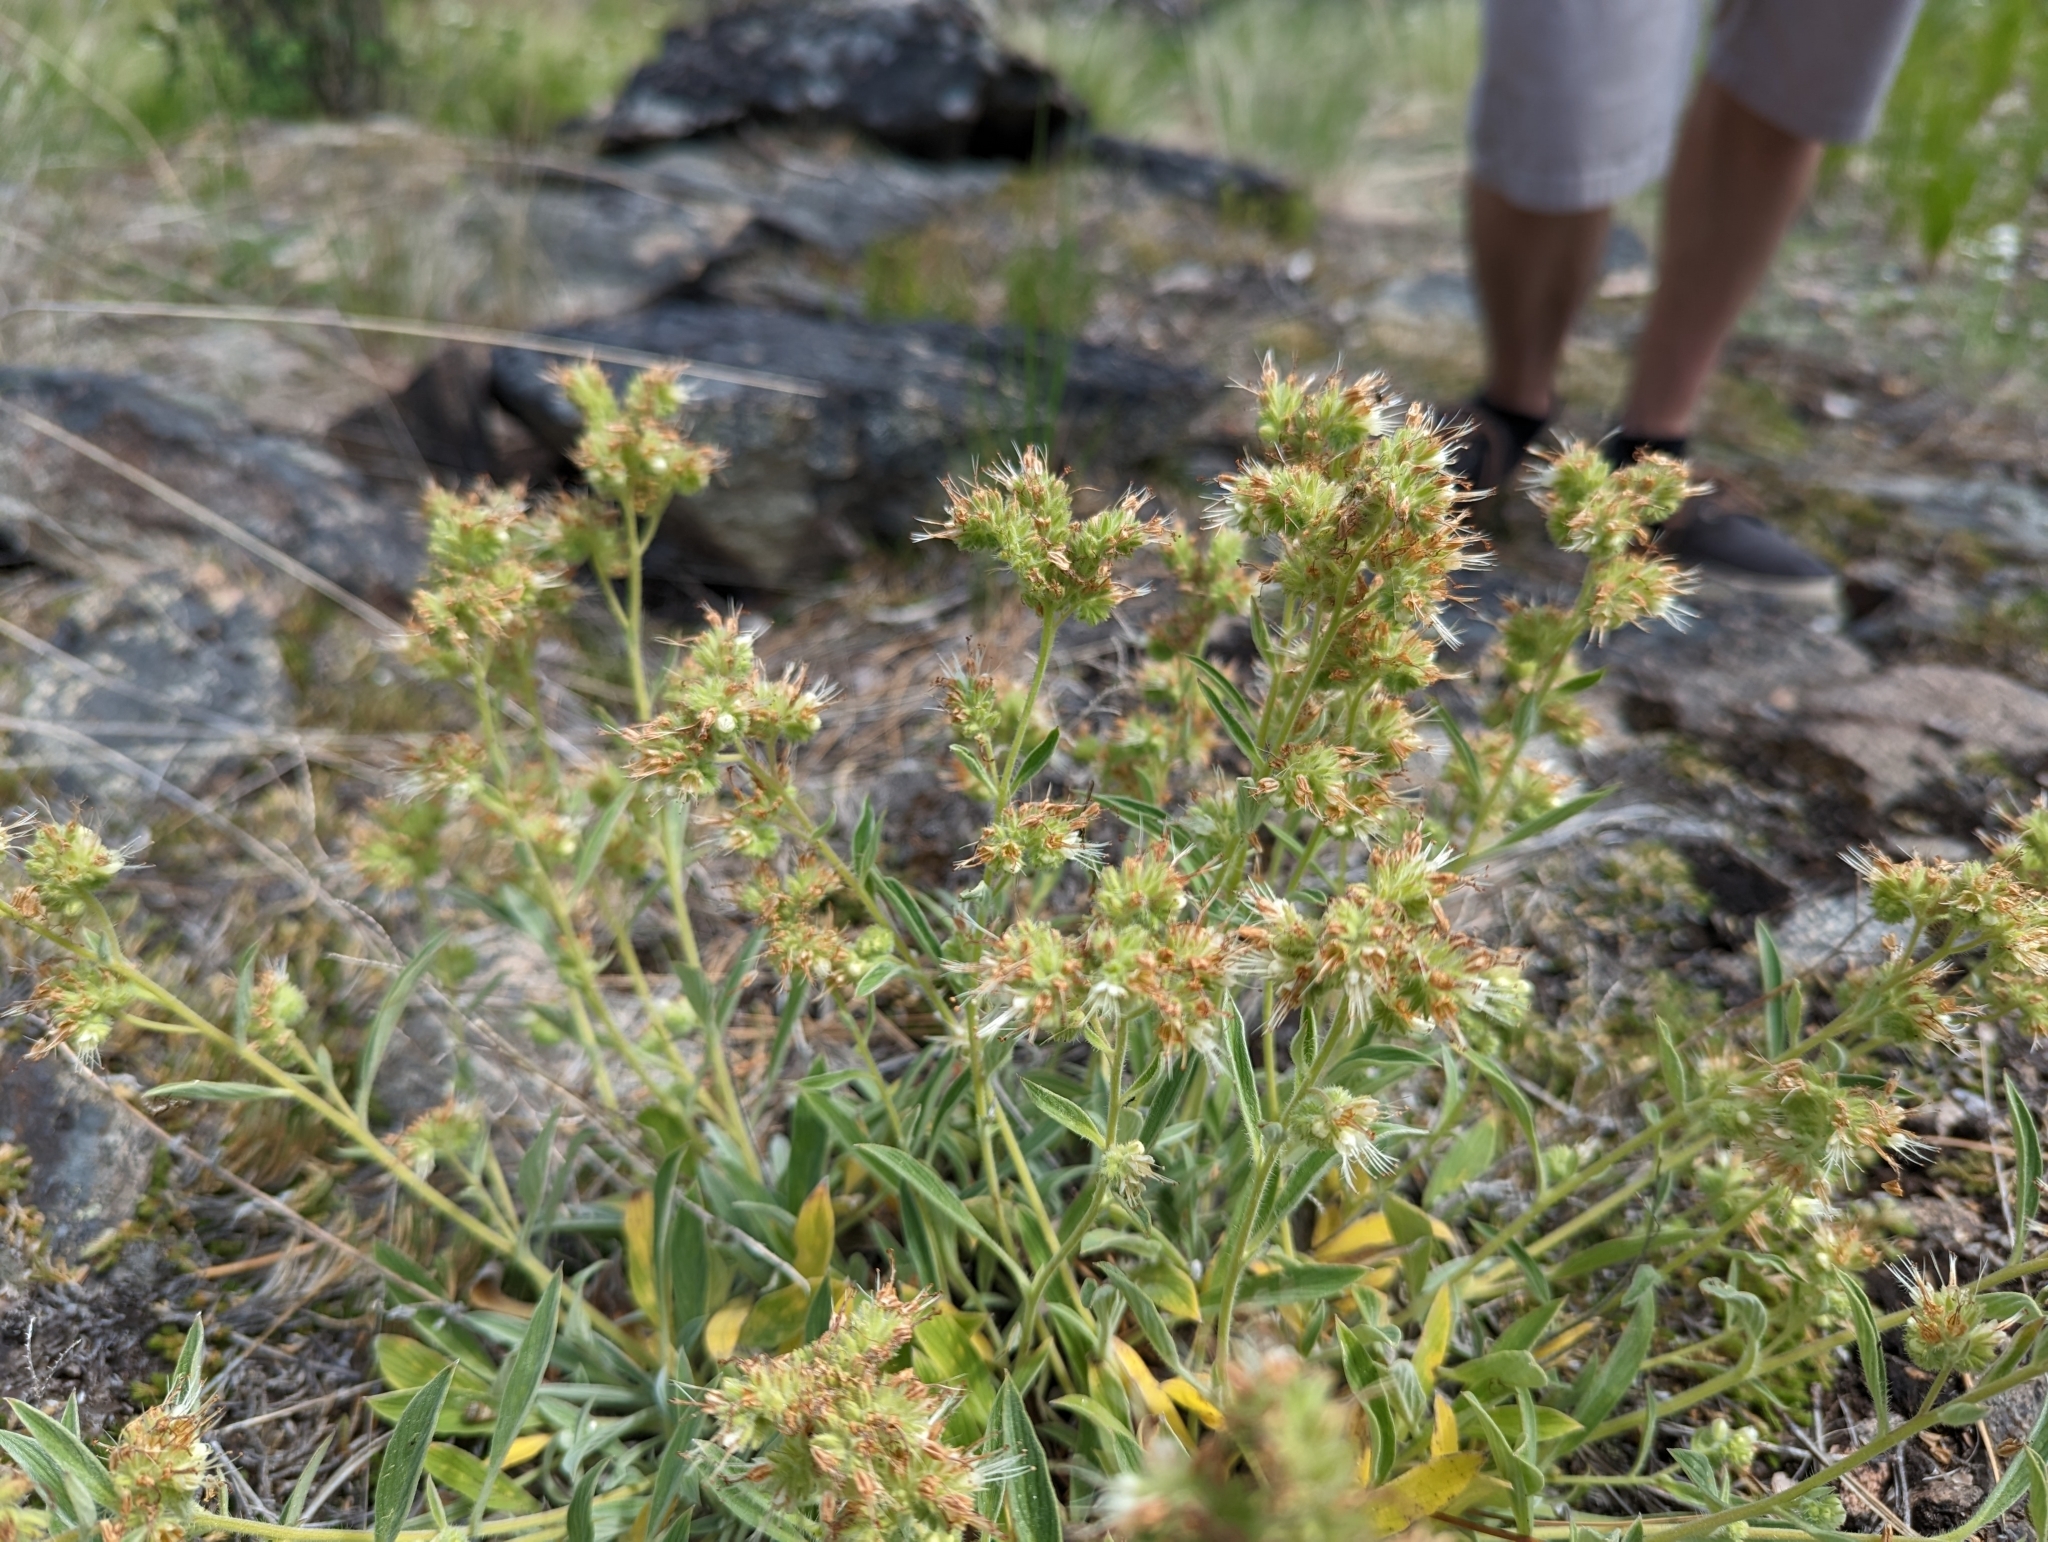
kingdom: Plantae
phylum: Tracheophyta
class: Magnoliopsida
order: Boraginales
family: Hydrophyllaceae
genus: Phacelia
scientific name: Phacelia hastata
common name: Silver-leaved phacelia
